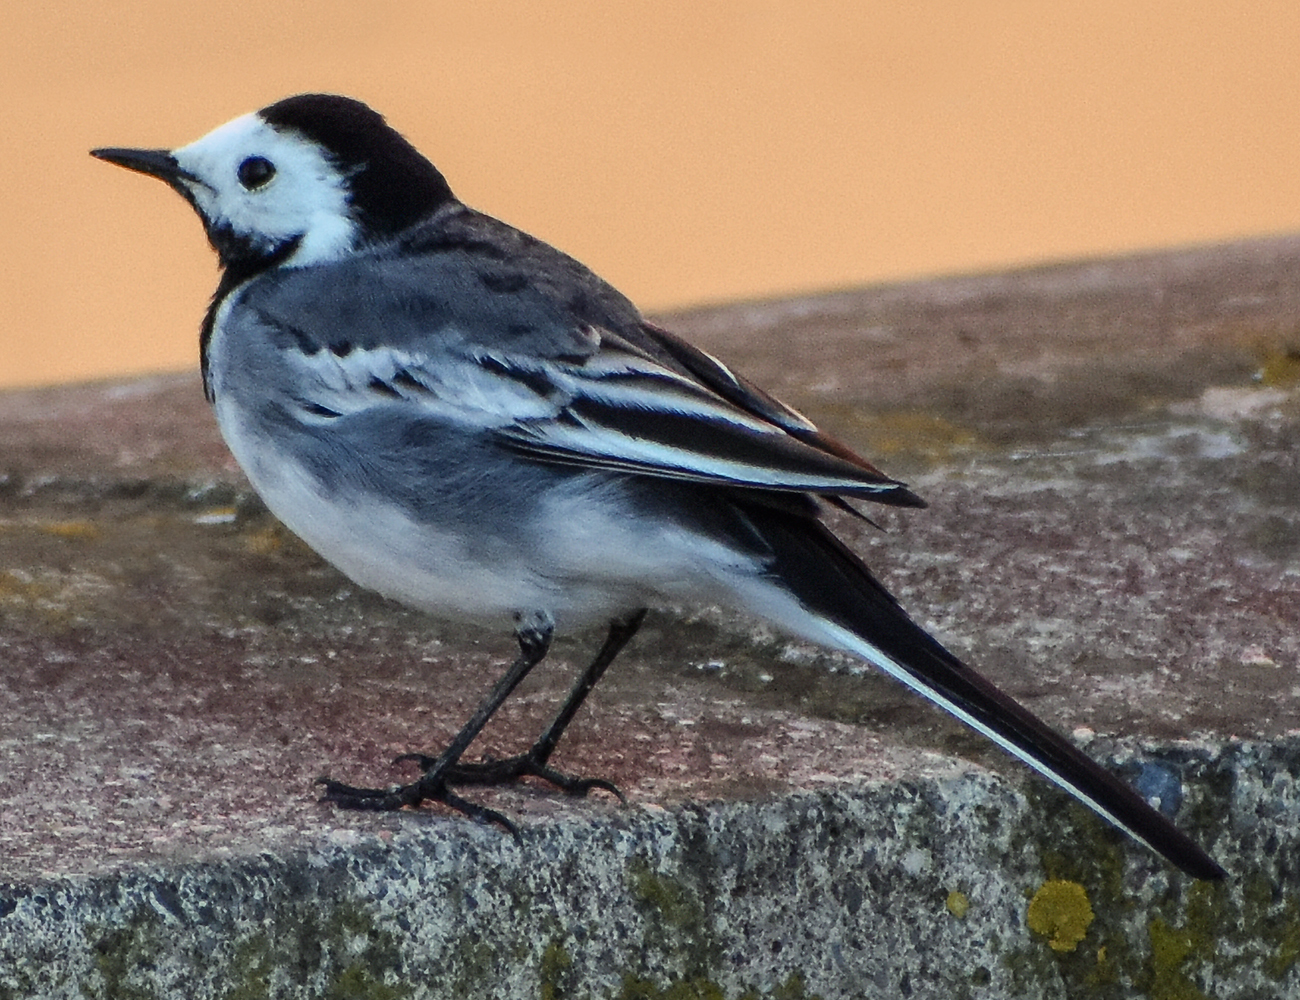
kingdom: Animalia
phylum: Chordata
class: Aves
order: Passeriformes
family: Motacillidae
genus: Motacilla
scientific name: Motacilla alba
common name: White wagtail
